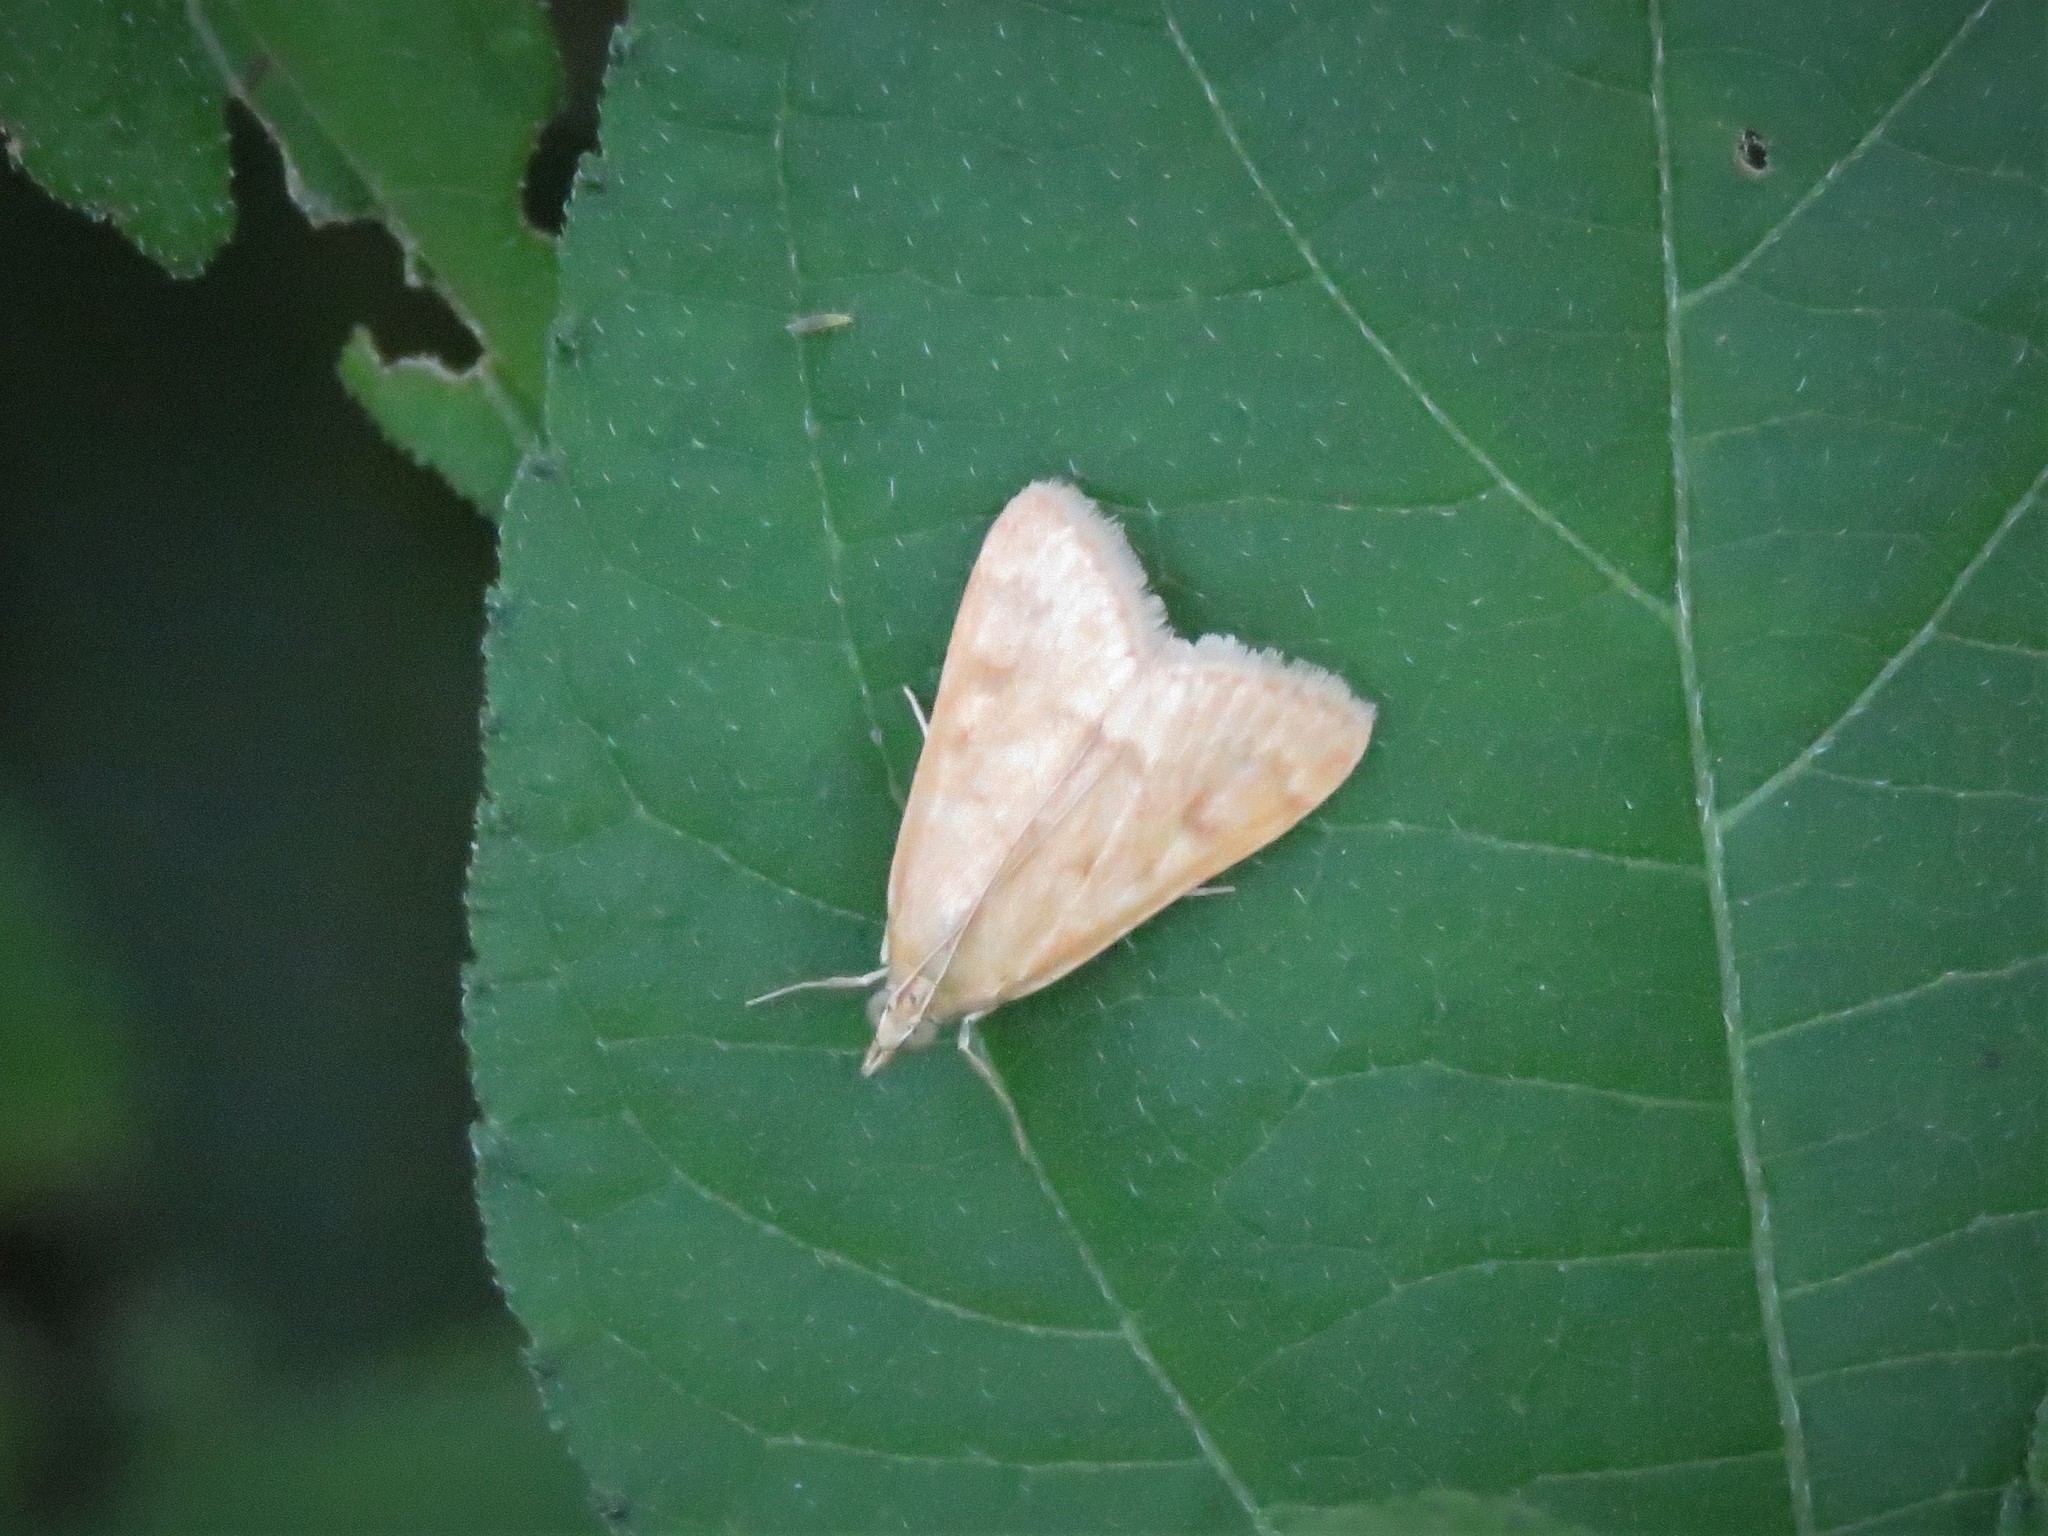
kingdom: Animalia
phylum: Arthropoda
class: Insecta
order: Lepidoptera
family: Crambidae
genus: Achyra
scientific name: Achyra rantalis
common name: Garden webworm
